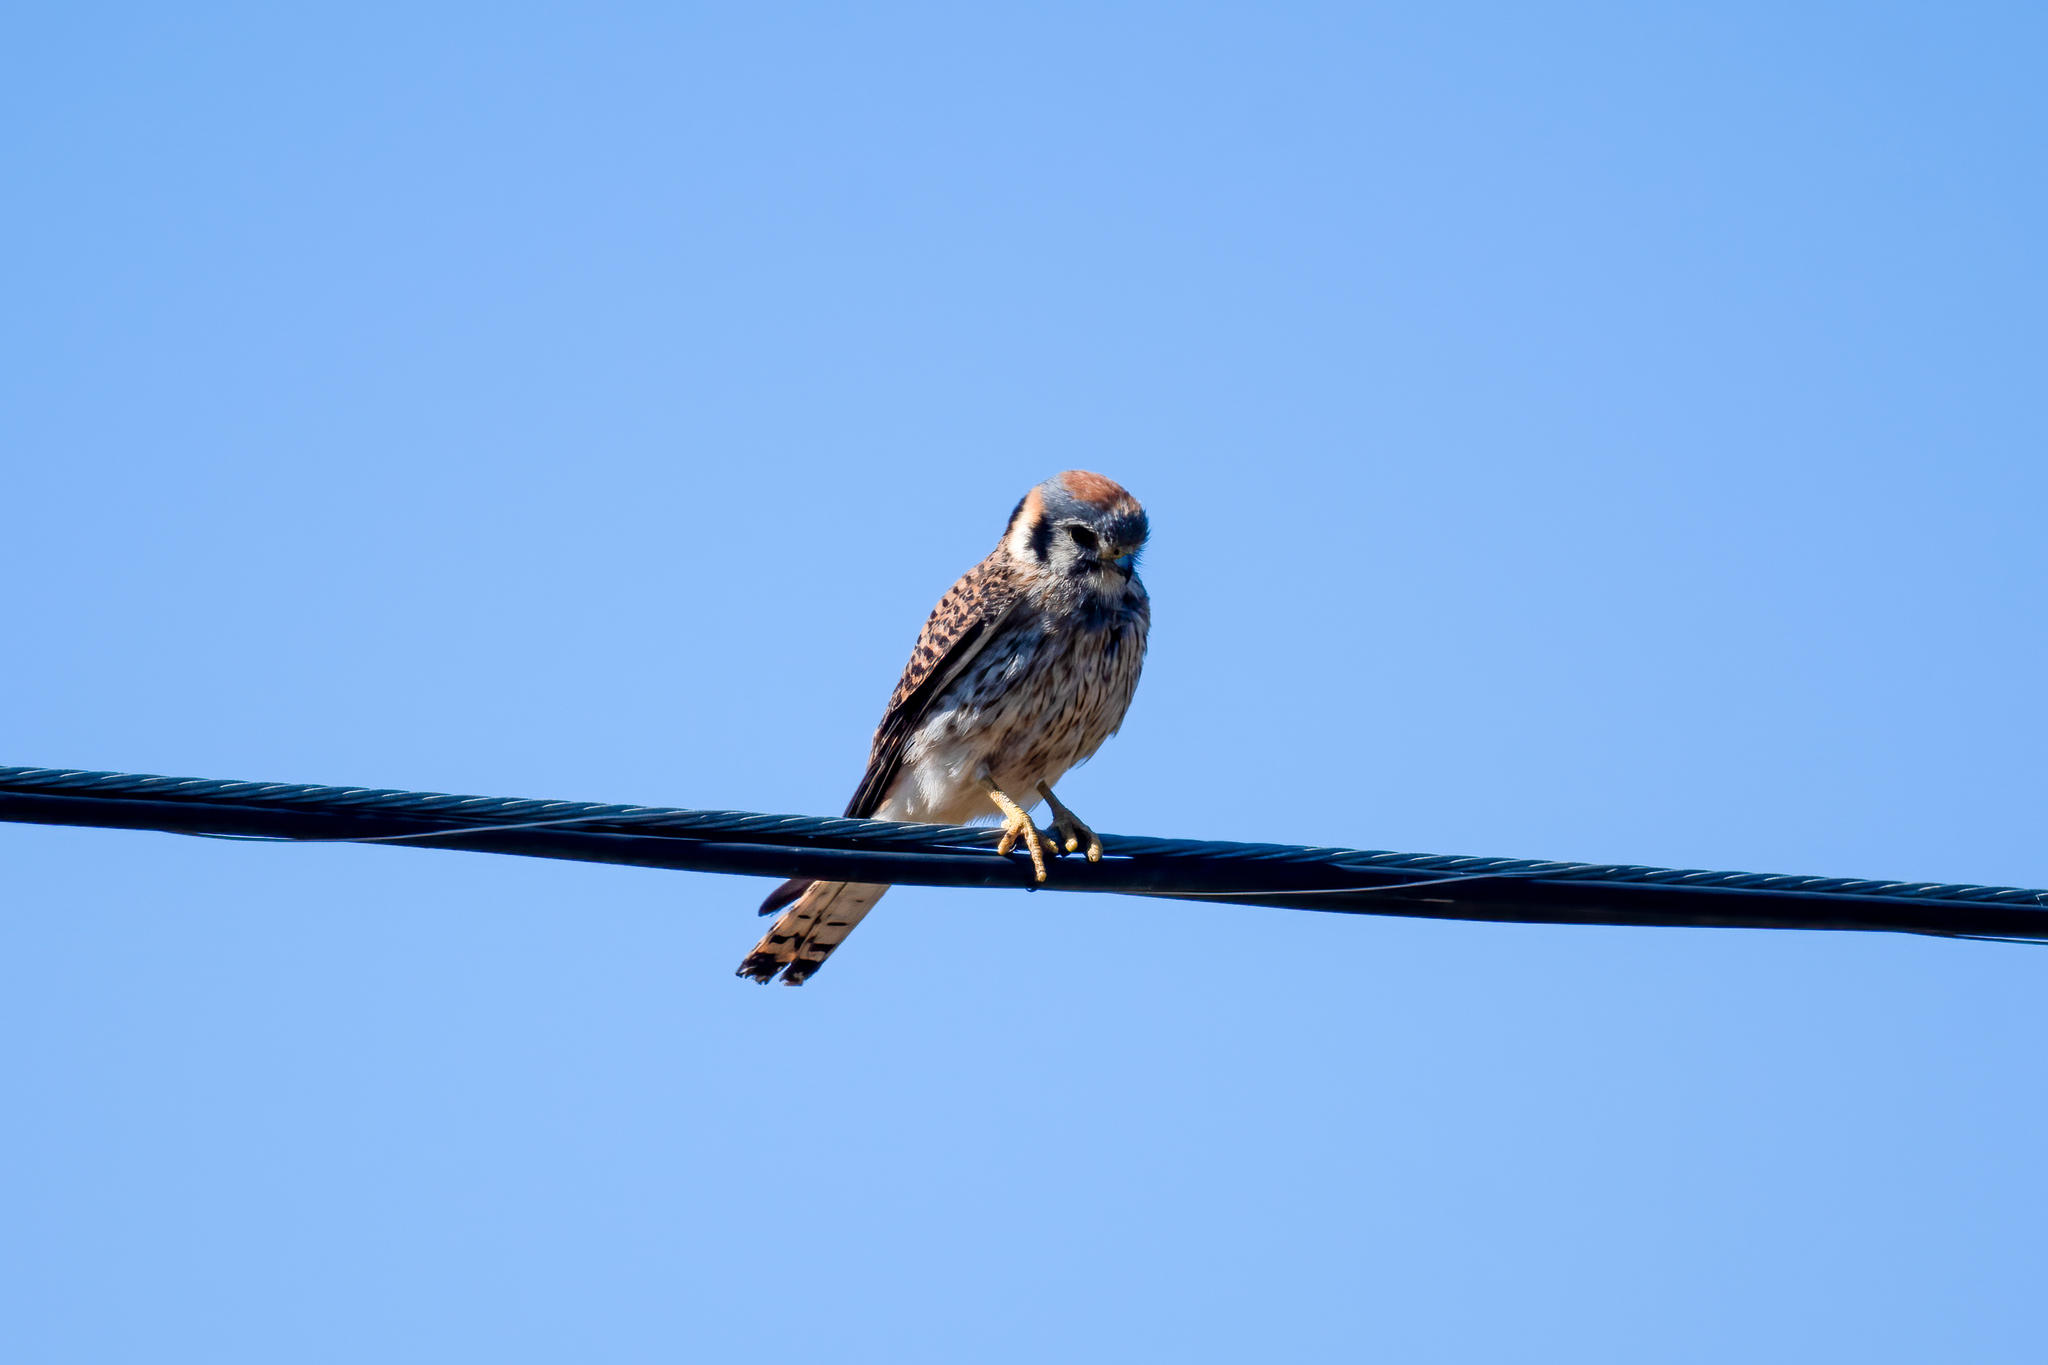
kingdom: Animalia
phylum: Chordata
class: Aves
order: Falconiformes
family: Falconidae
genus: Falco
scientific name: Falco sparverius
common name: American kestrel
